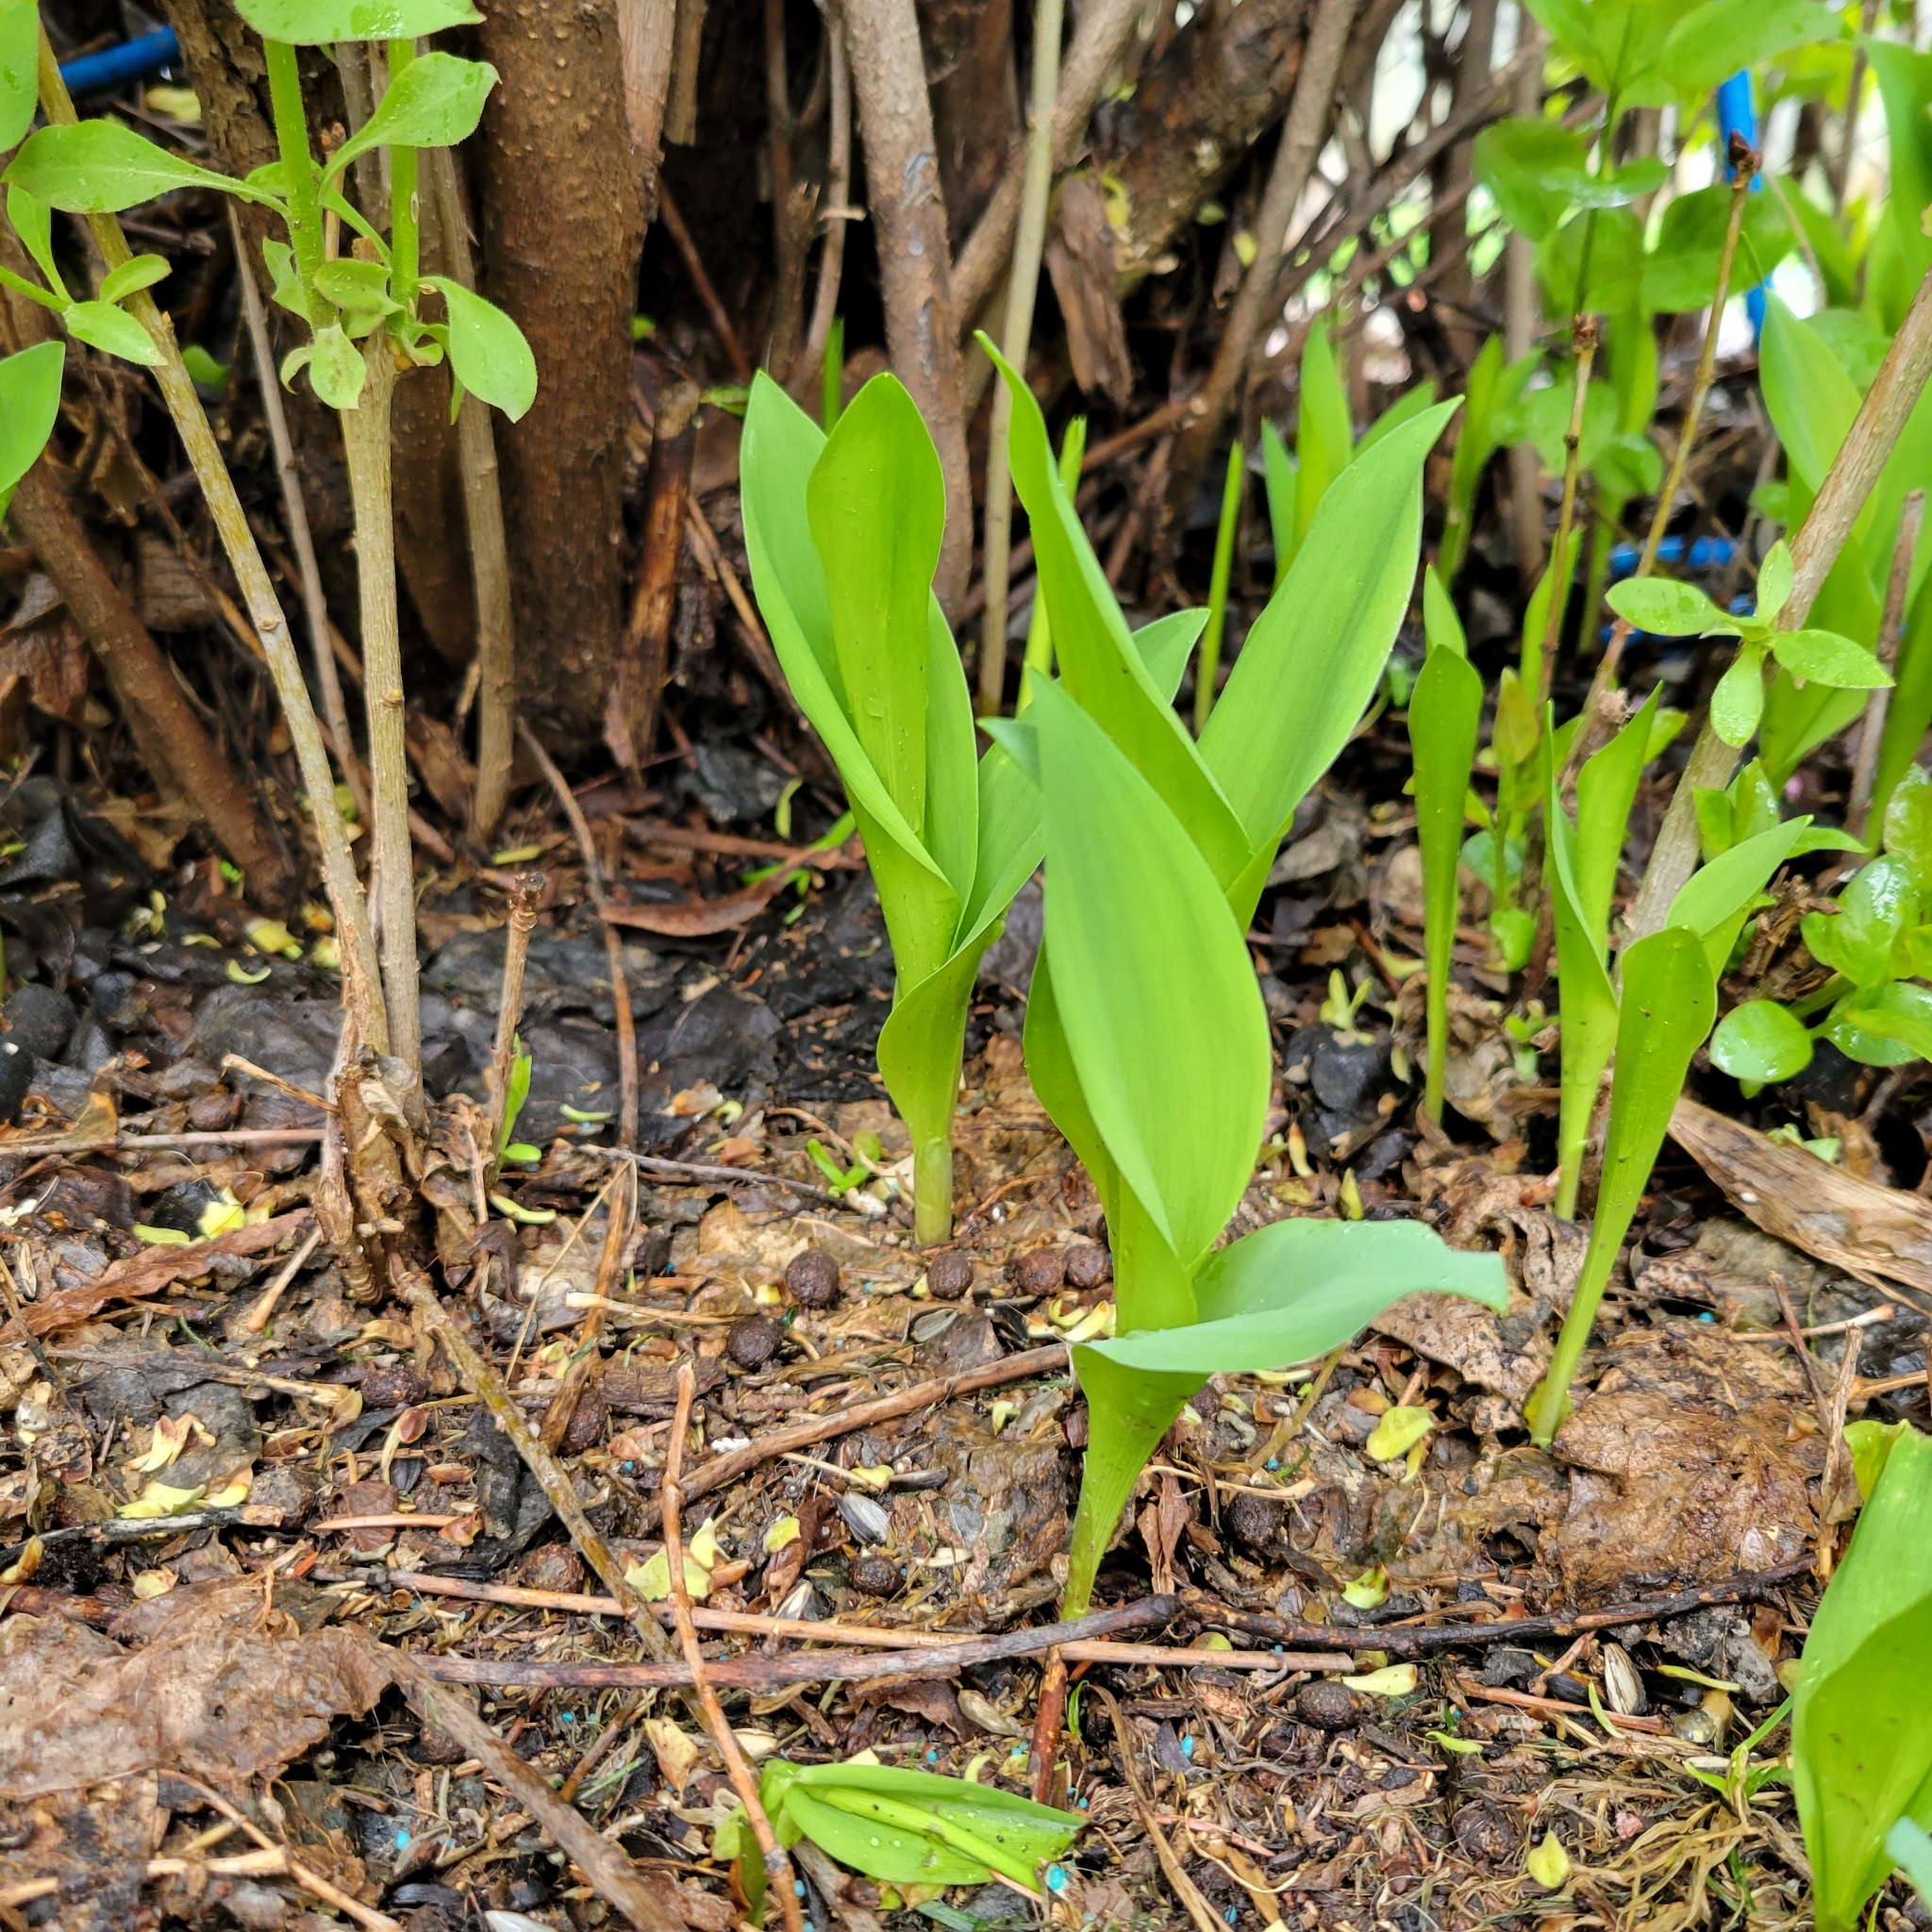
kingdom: Plantae
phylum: Tracheophyta
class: Liliopsida
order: Asparagales
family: Asparagaceae
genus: Convallaria
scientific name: Convallaria majalis
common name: Lily-of-the-valley
